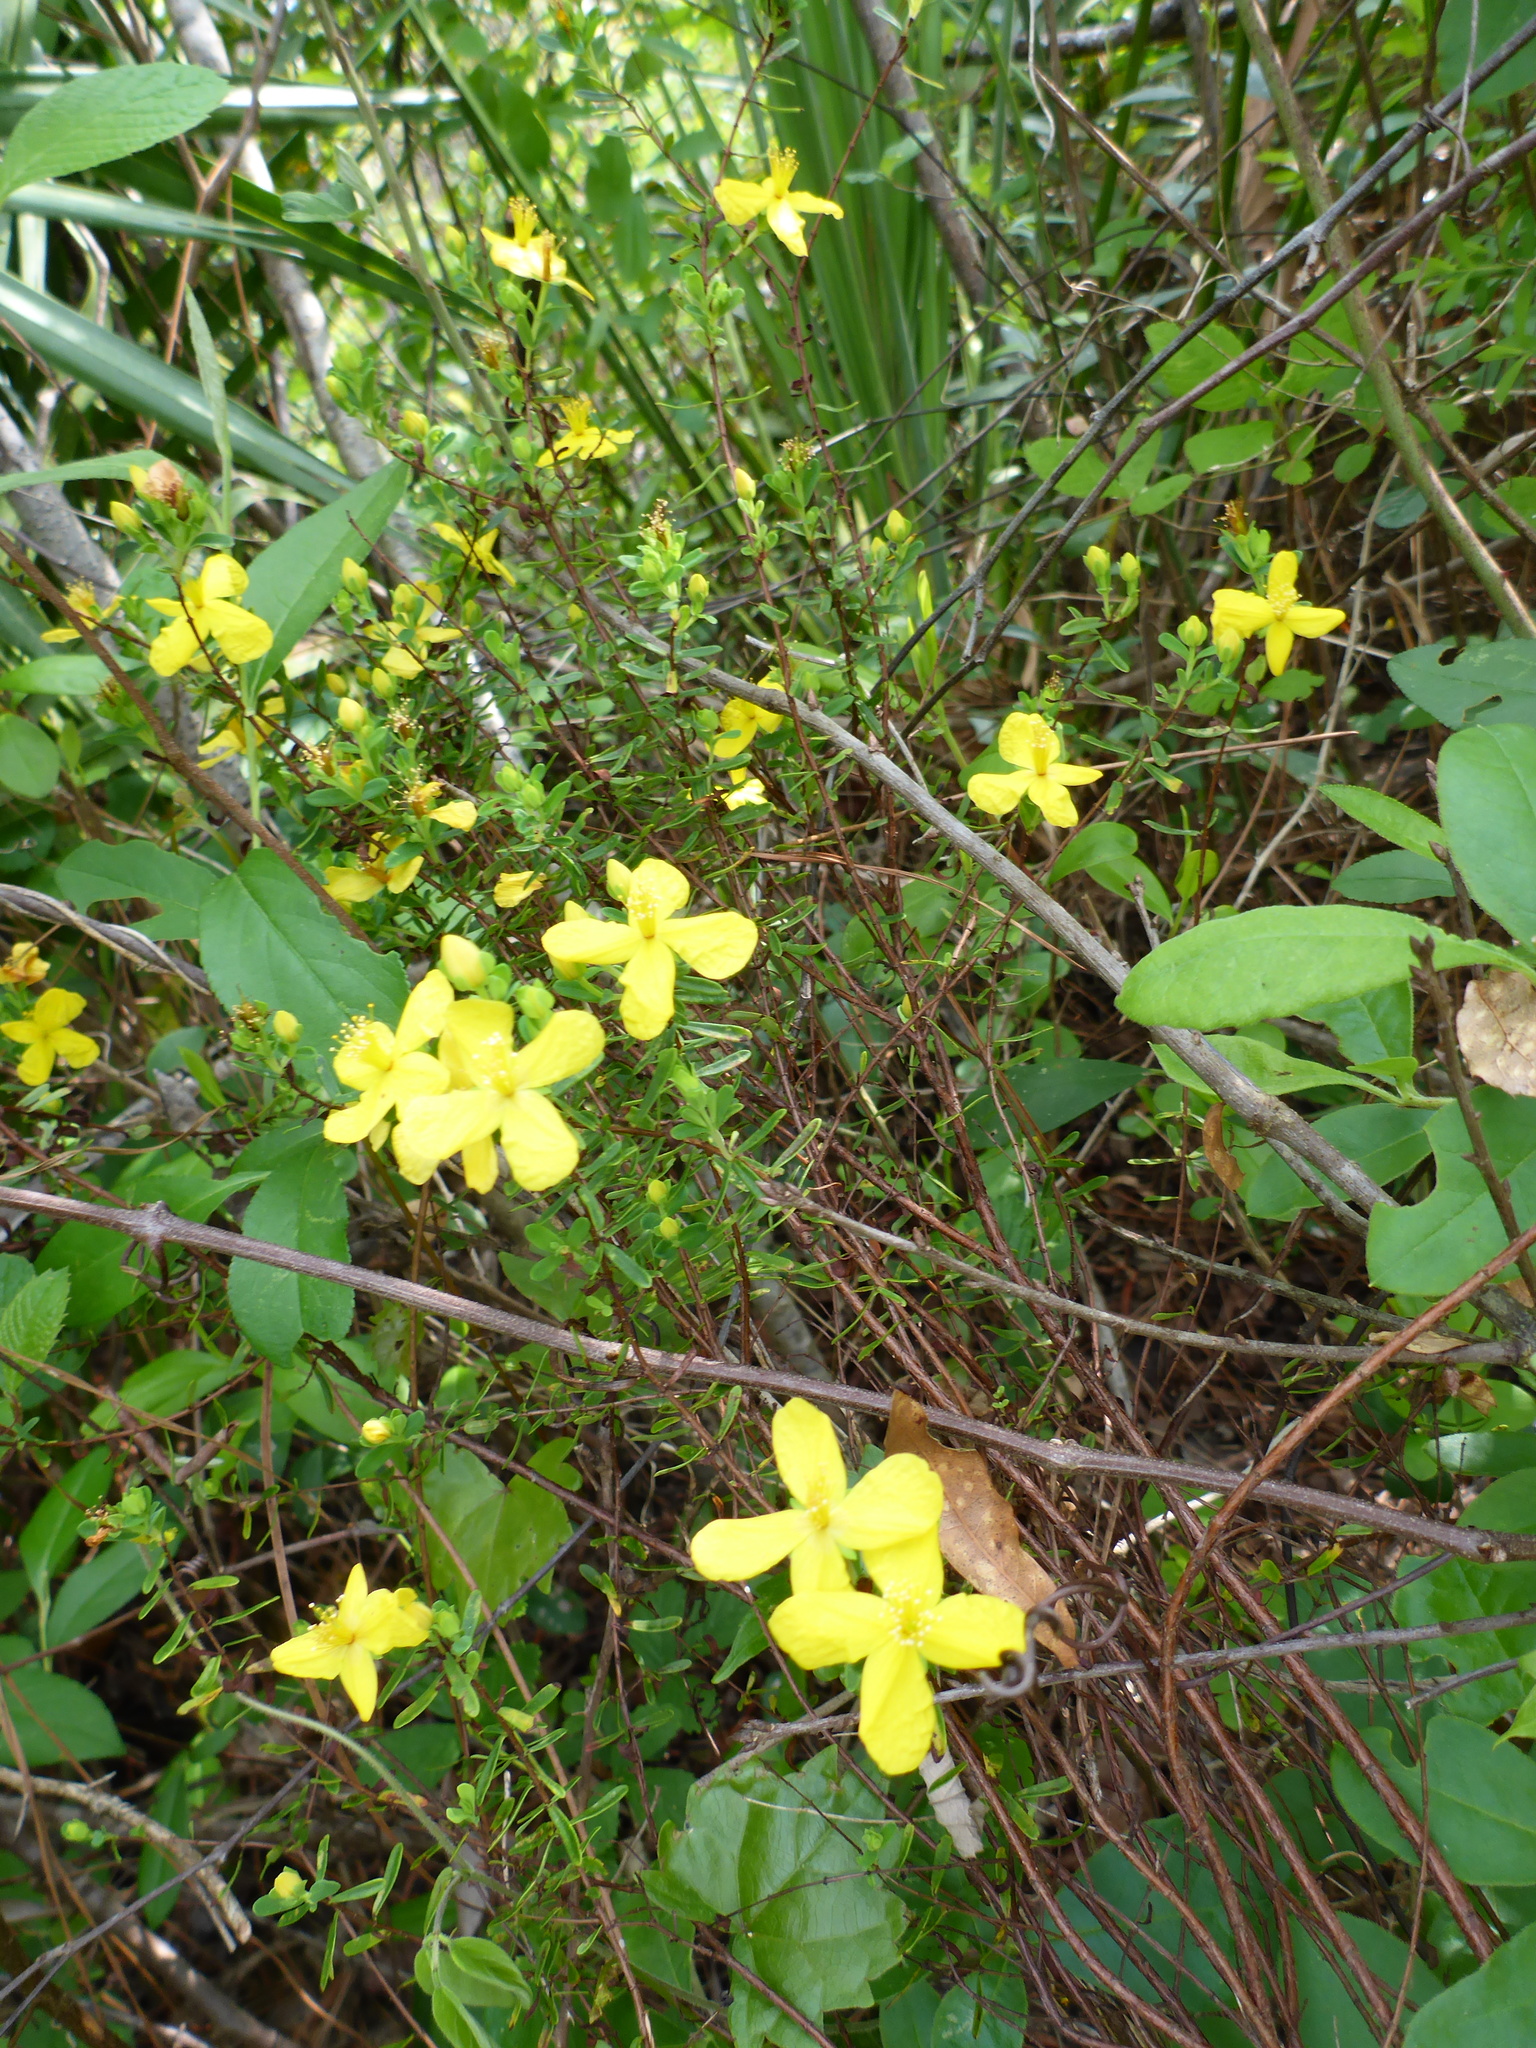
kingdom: Plantae
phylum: Tracheophyta
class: Magnoliopsida
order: Malpighiales
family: Hypericaceae
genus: Hypericum
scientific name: Hypericum microsepalum
